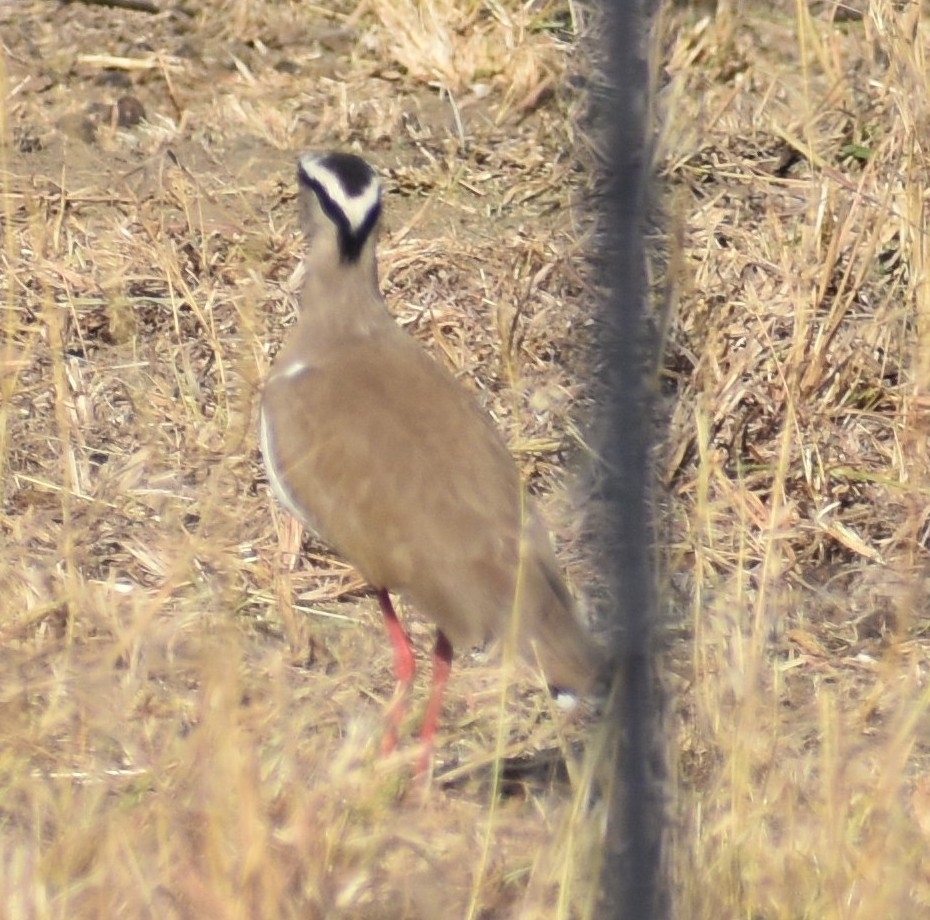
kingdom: Animalia
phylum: Chordata
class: Aves
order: Charadriiformes
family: Charadriidae
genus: Vanellus
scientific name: Vanellus coronatus
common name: Crowned lapwing
